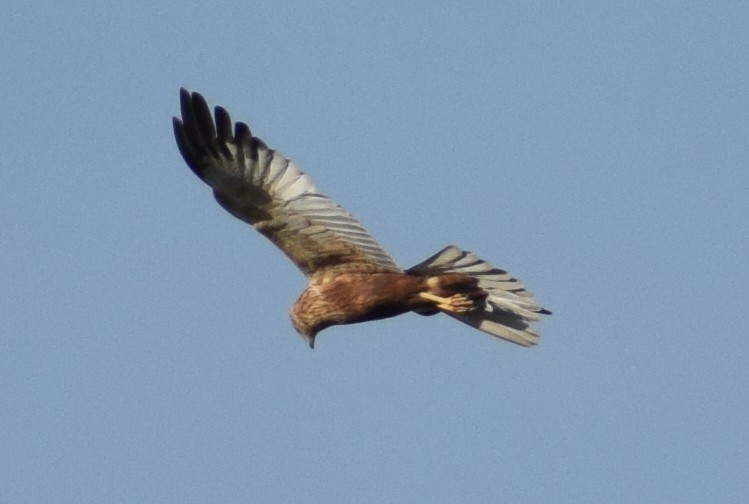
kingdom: Animalia
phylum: Chordata
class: Aves
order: Accipitriformes
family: Accipitridae
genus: Circus
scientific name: Circus aeruginosus
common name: Western marsh harrier
